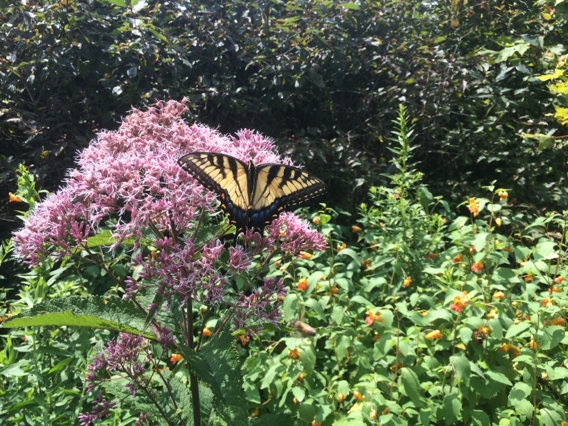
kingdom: Animalia
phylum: Arthropoda
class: Insecta
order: Lepidoptera
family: Papilionidae
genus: Papilio
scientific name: Papilio glaucus
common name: Tiger swallowtail
